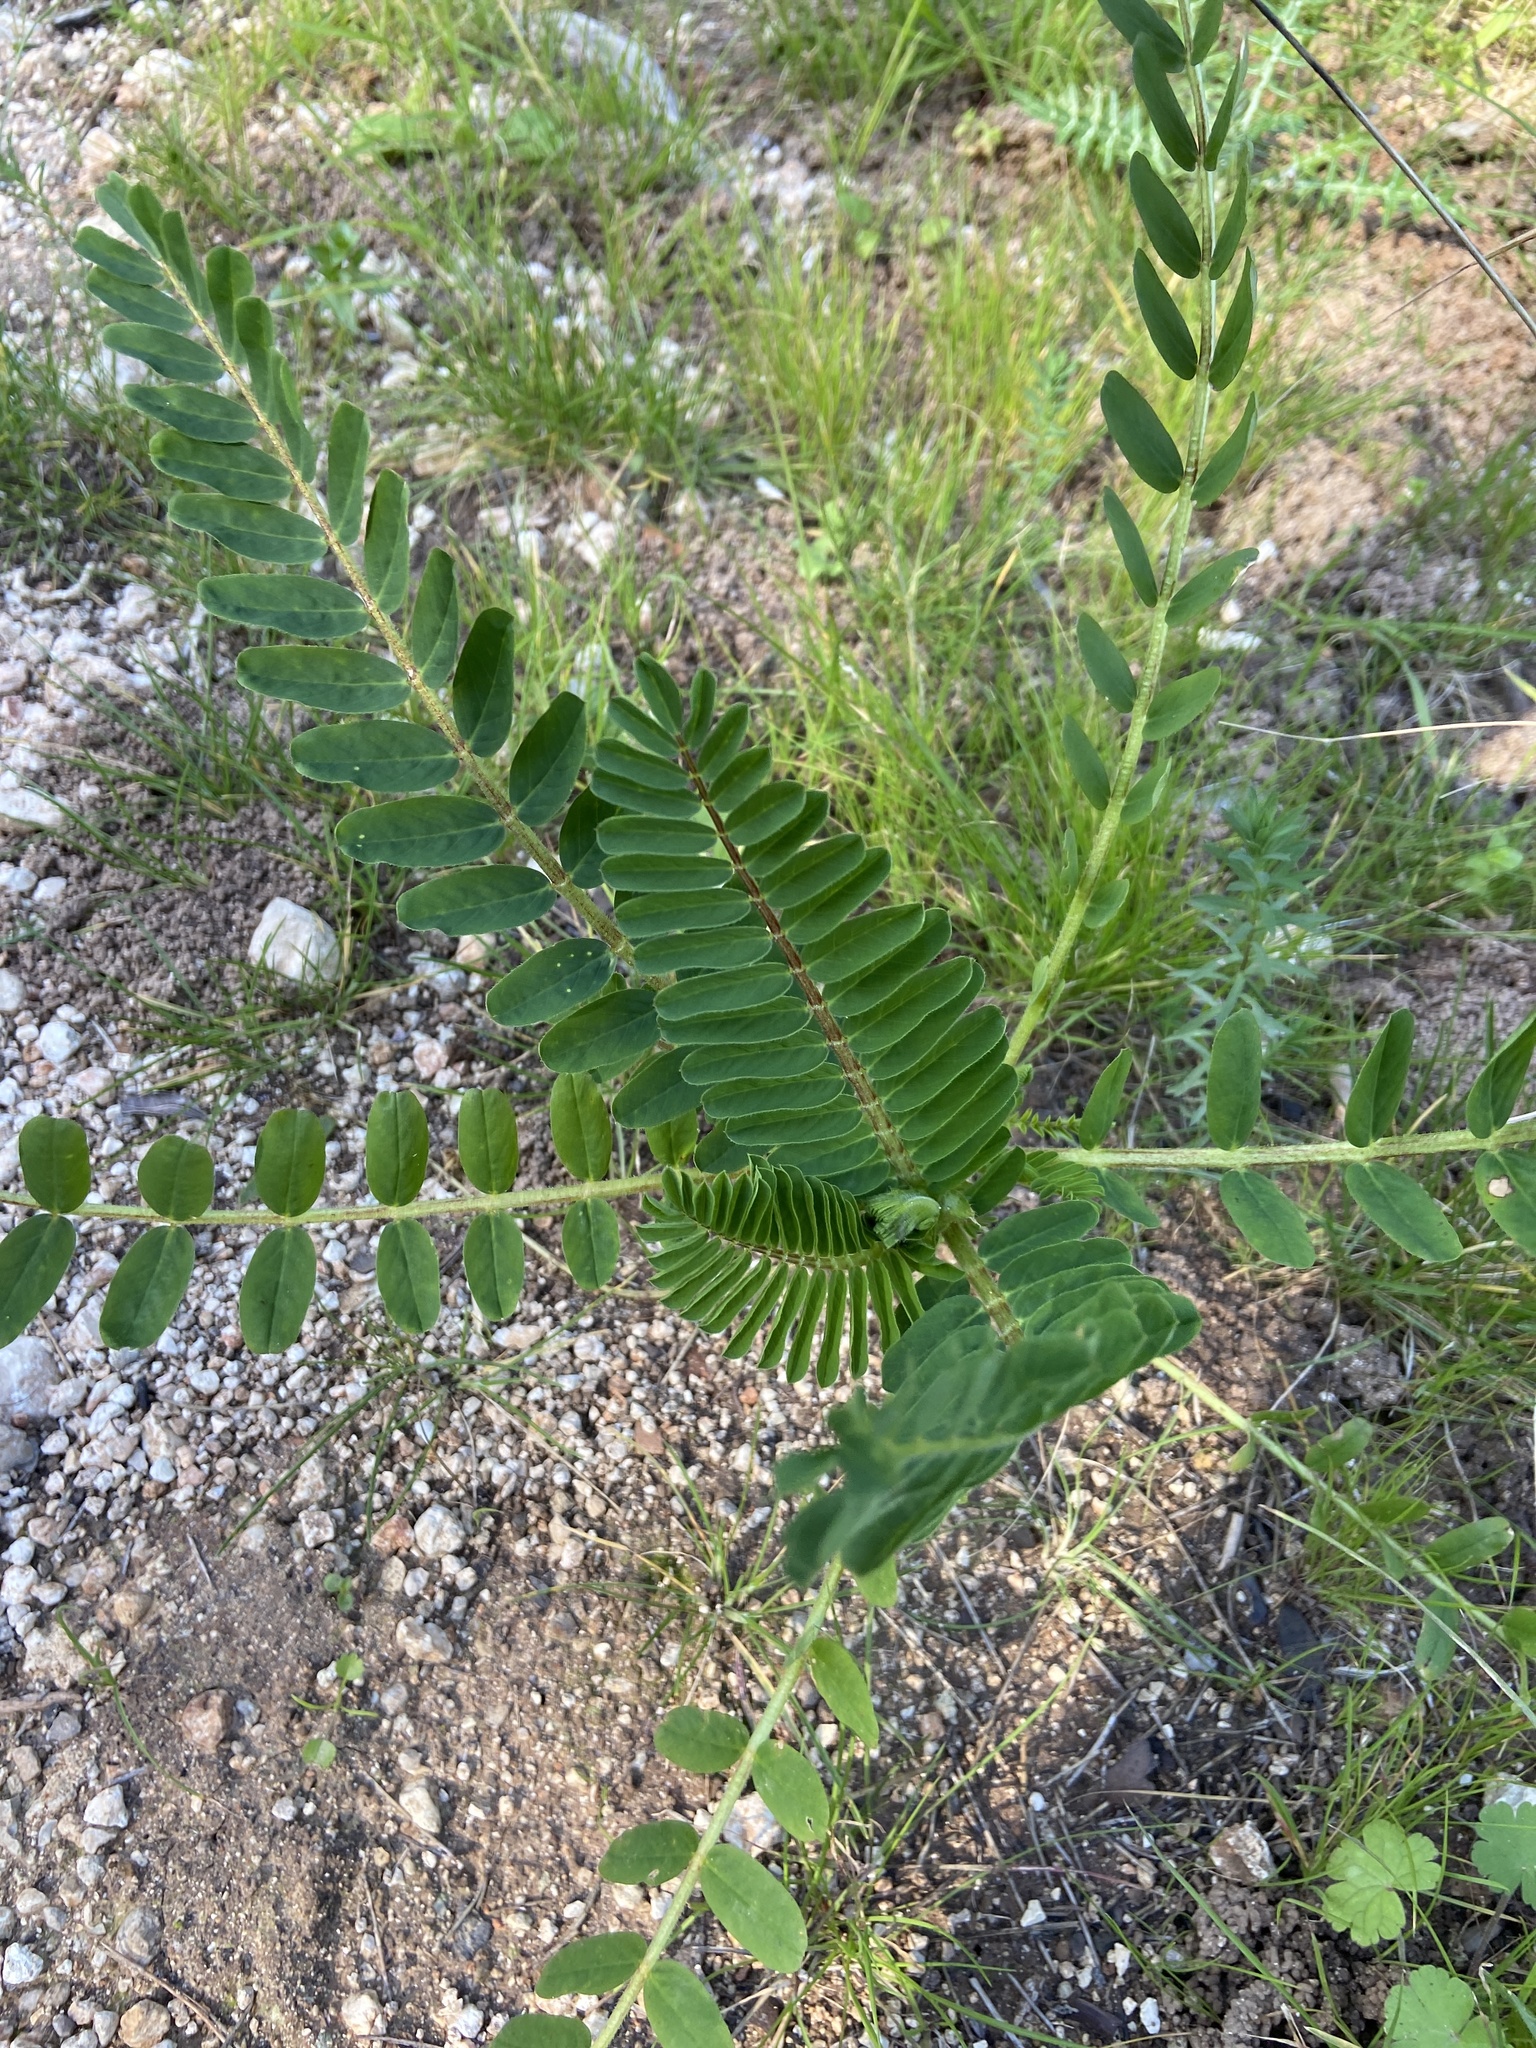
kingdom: Plantae
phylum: Tracheophyta
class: Magnoliopsida
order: Fabales
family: Fabaceae
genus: Astragalus
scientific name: Astragalus boeticus
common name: Milk-vetch
